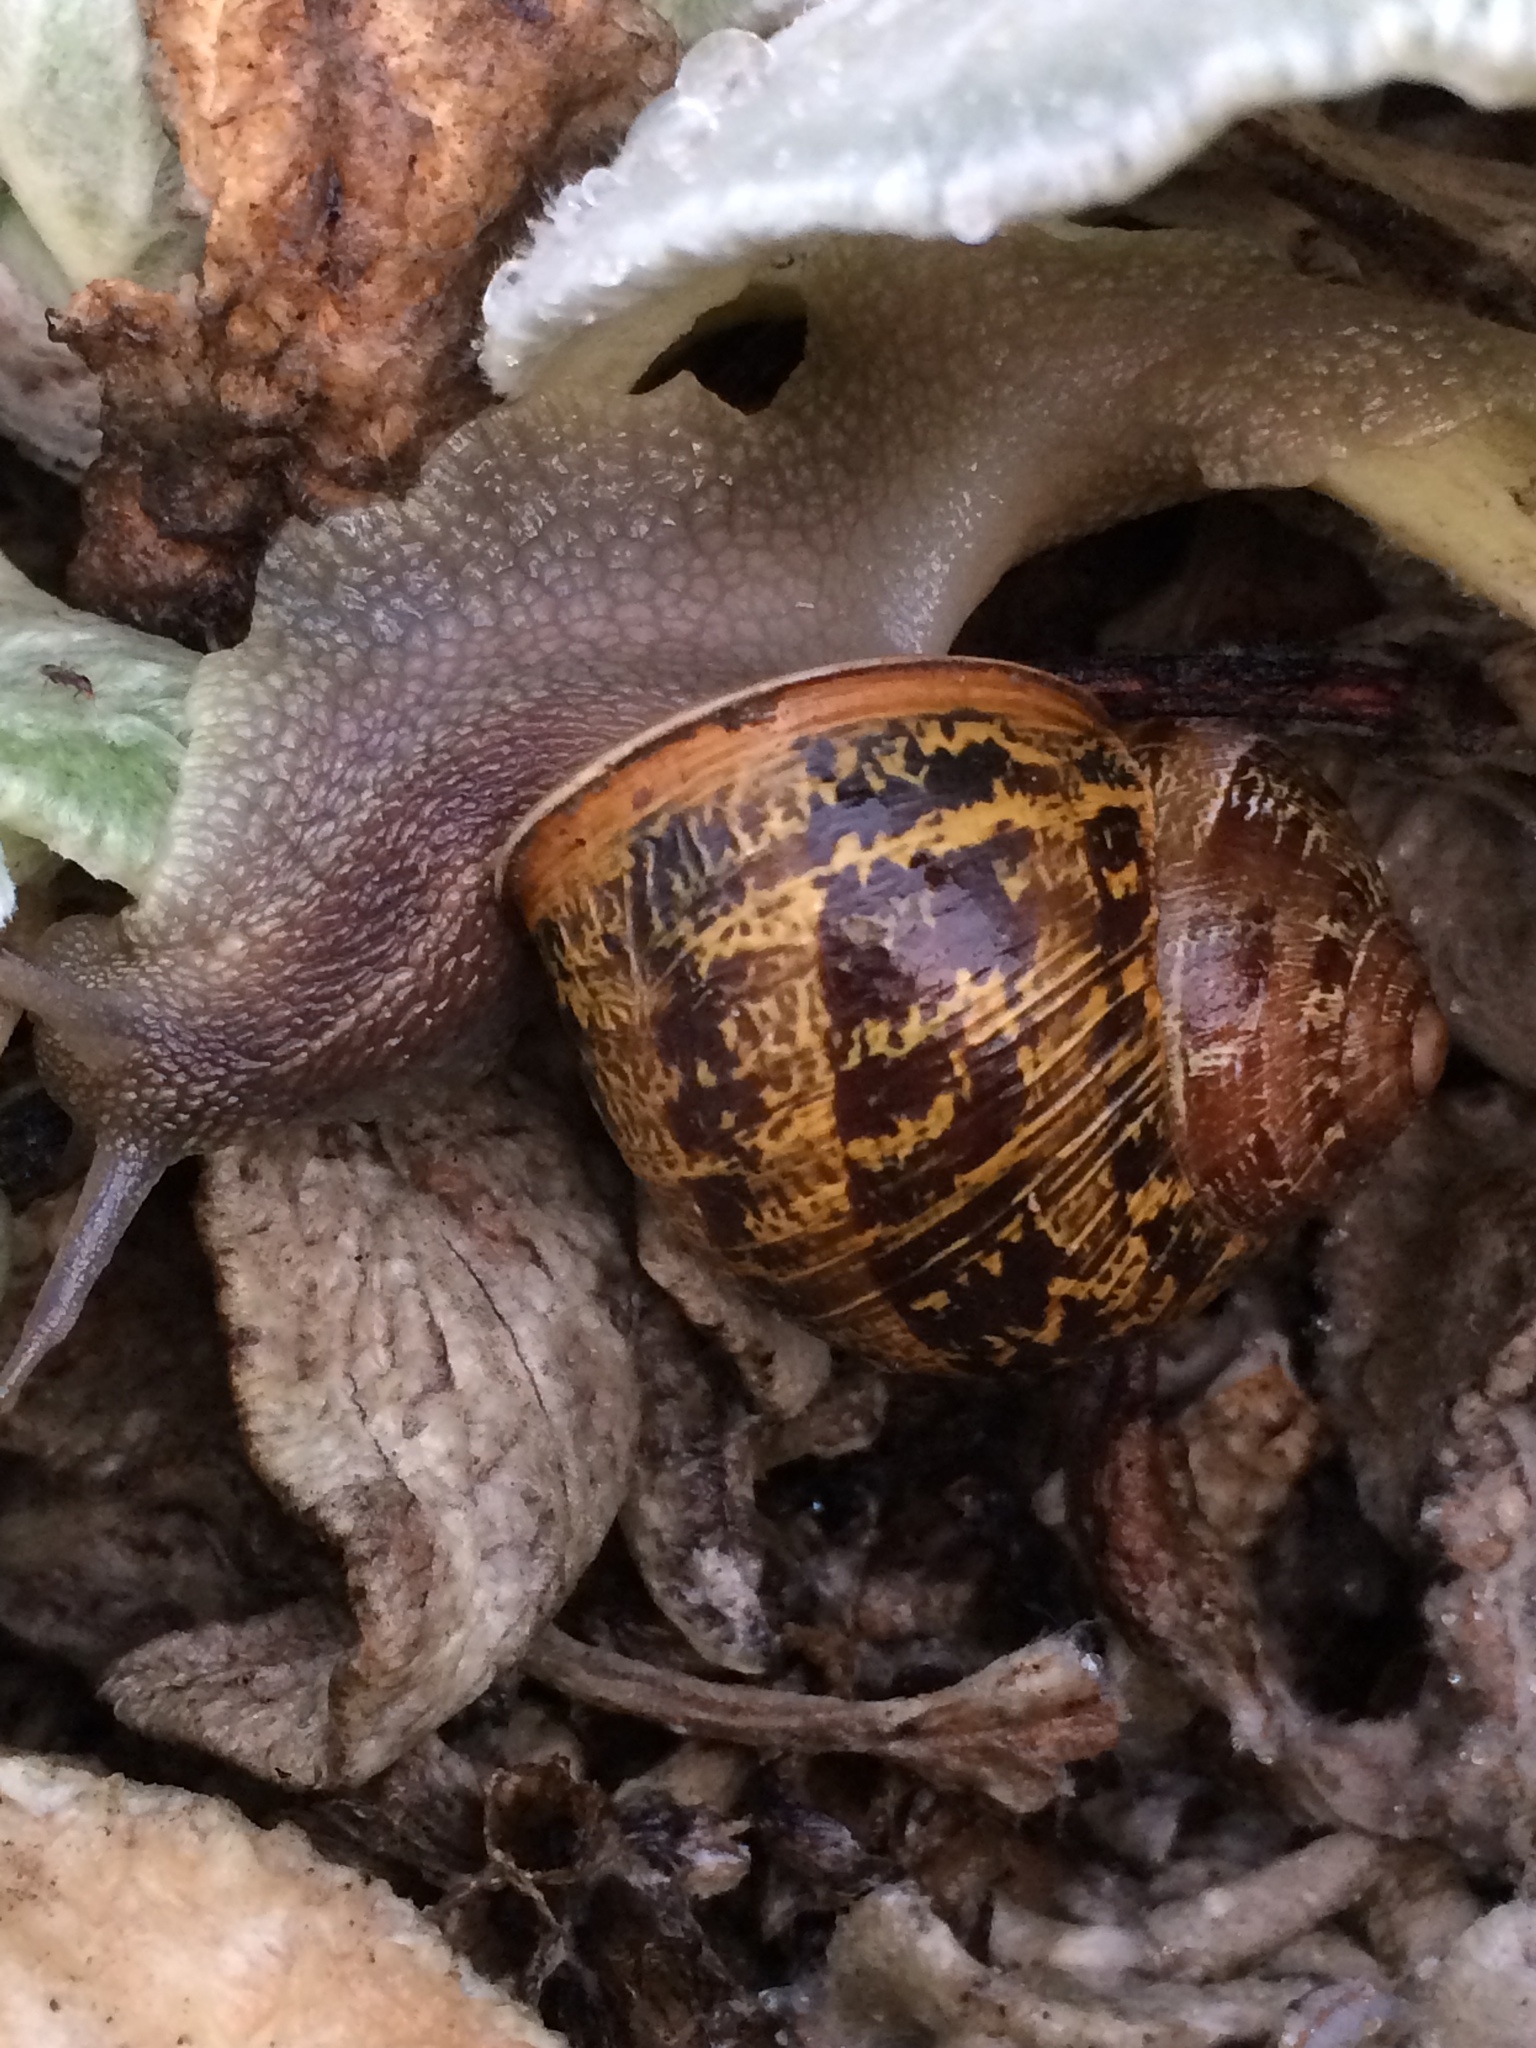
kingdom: Animalia
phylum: Mollusca
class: Gastropoda
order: Stylommatophora
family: Helicidae
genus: Cornu
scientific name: Cornu aspersum
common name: Brown garden snail
